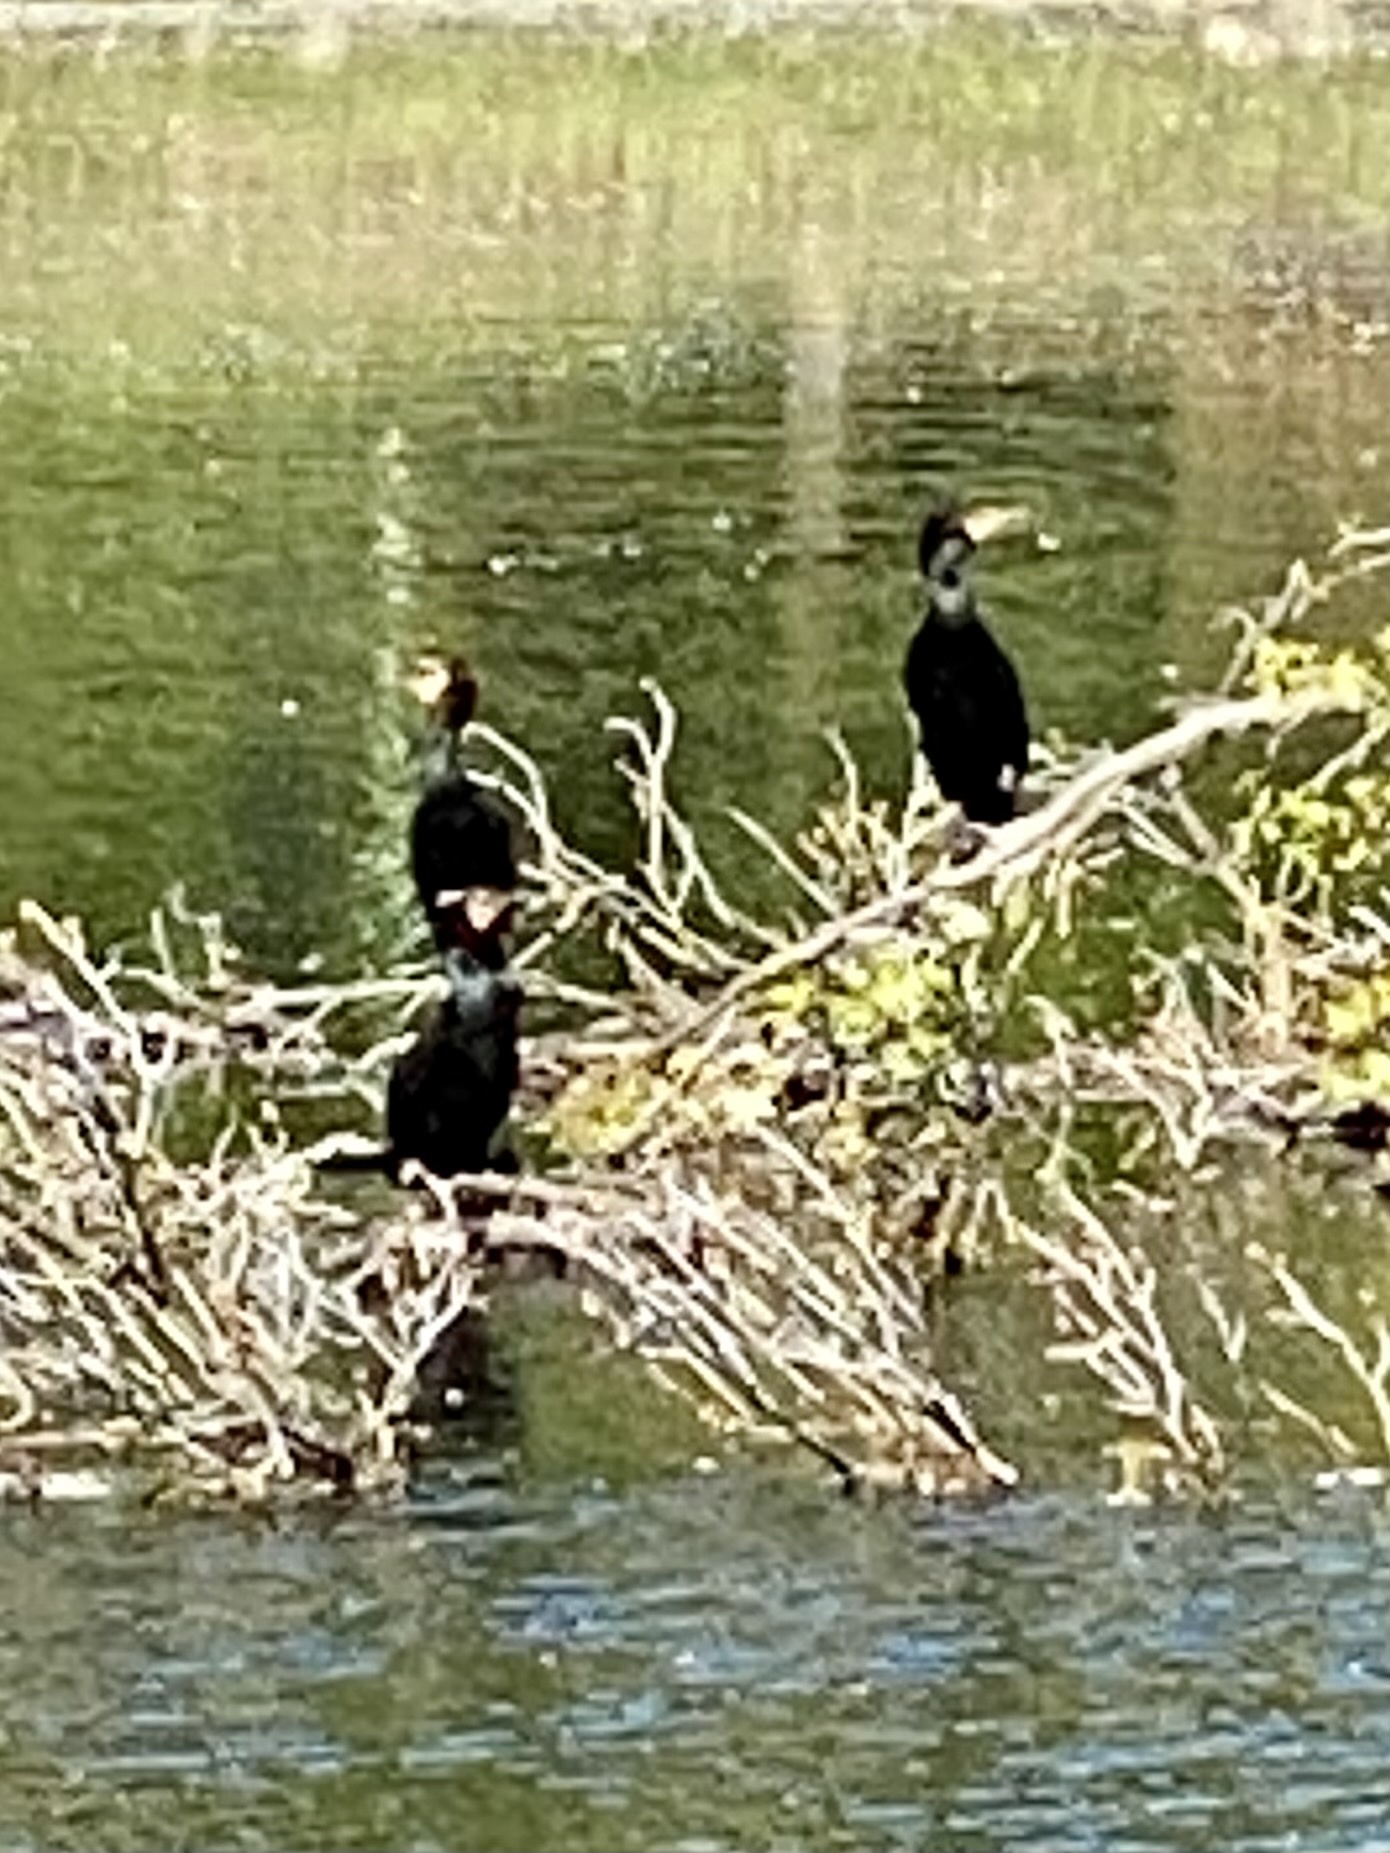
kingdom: Animalia
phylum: Chordata
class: Aves
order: Suliformes
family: Phalacrocoracidae
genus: Phalacrocorax
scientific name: Phalacrocorax auritus
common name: Double-crested cormorant
